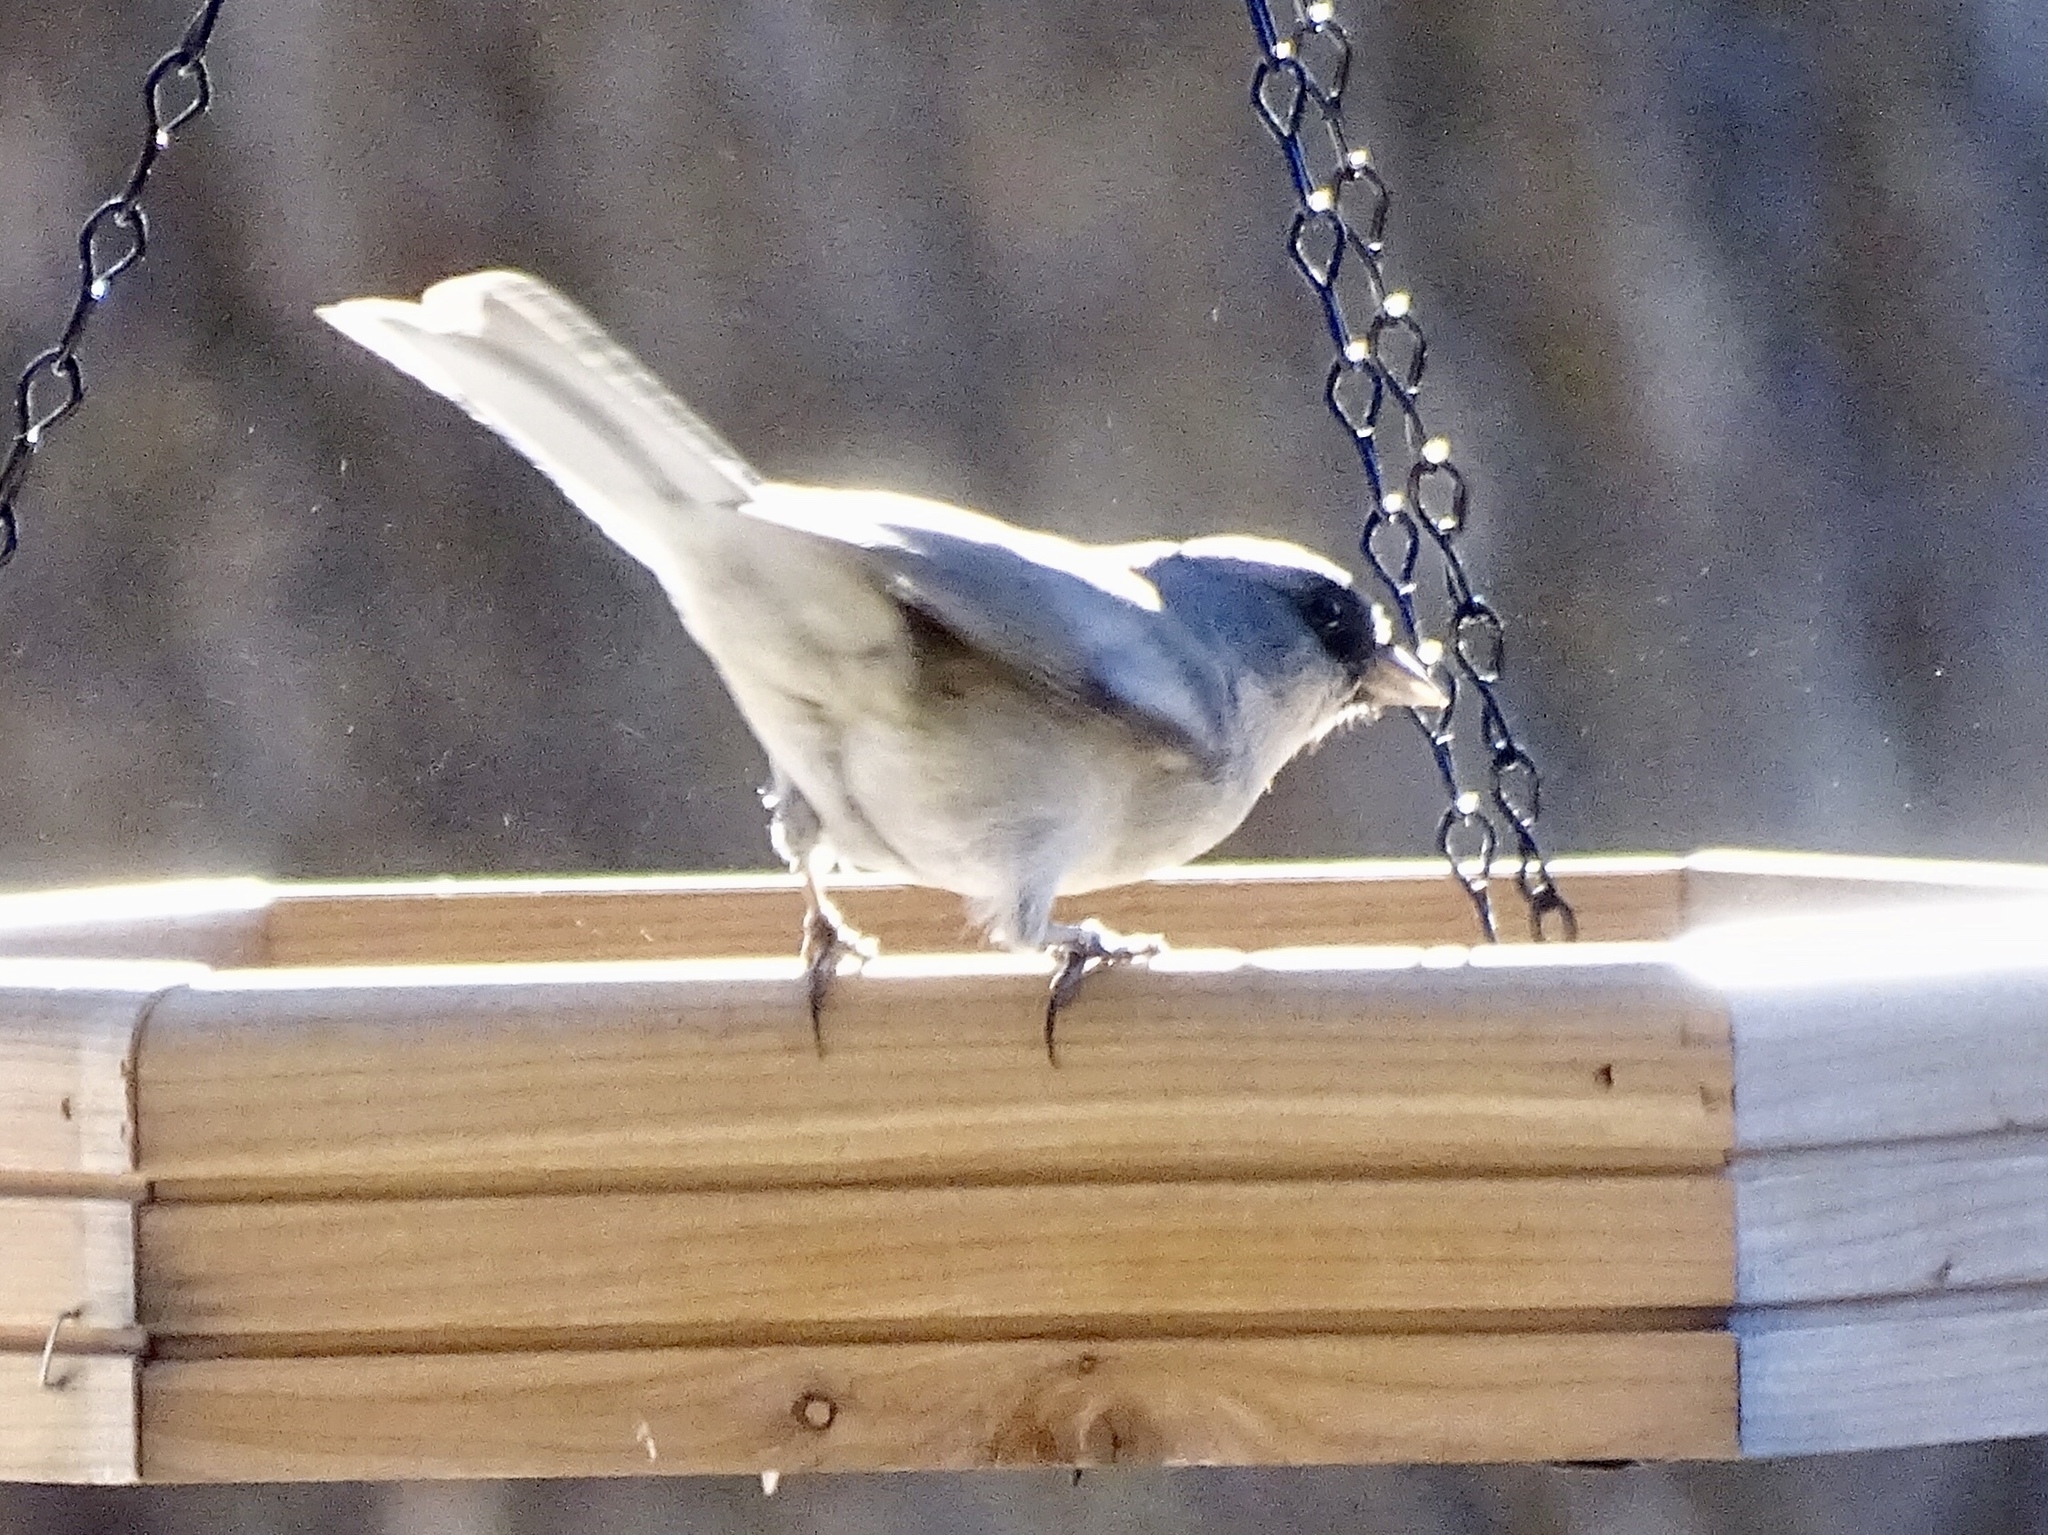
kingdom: Animalia
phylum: Chordata
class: Aves
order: Passeriformes
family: Passerellidae
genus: Junco
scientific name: Junco hyemalis
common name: Dark-eyed junco
